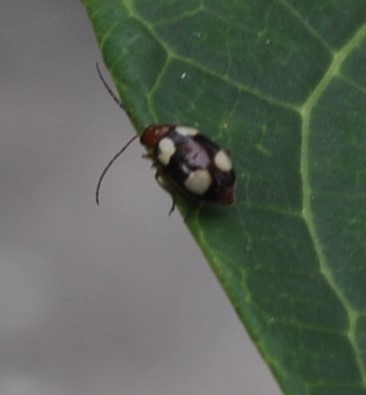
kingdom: Animalia
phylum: Arthropoda
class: Insecta
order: Coleoptera
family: Chrysomelidae
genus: Monolepta
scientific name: Monolepta signata
